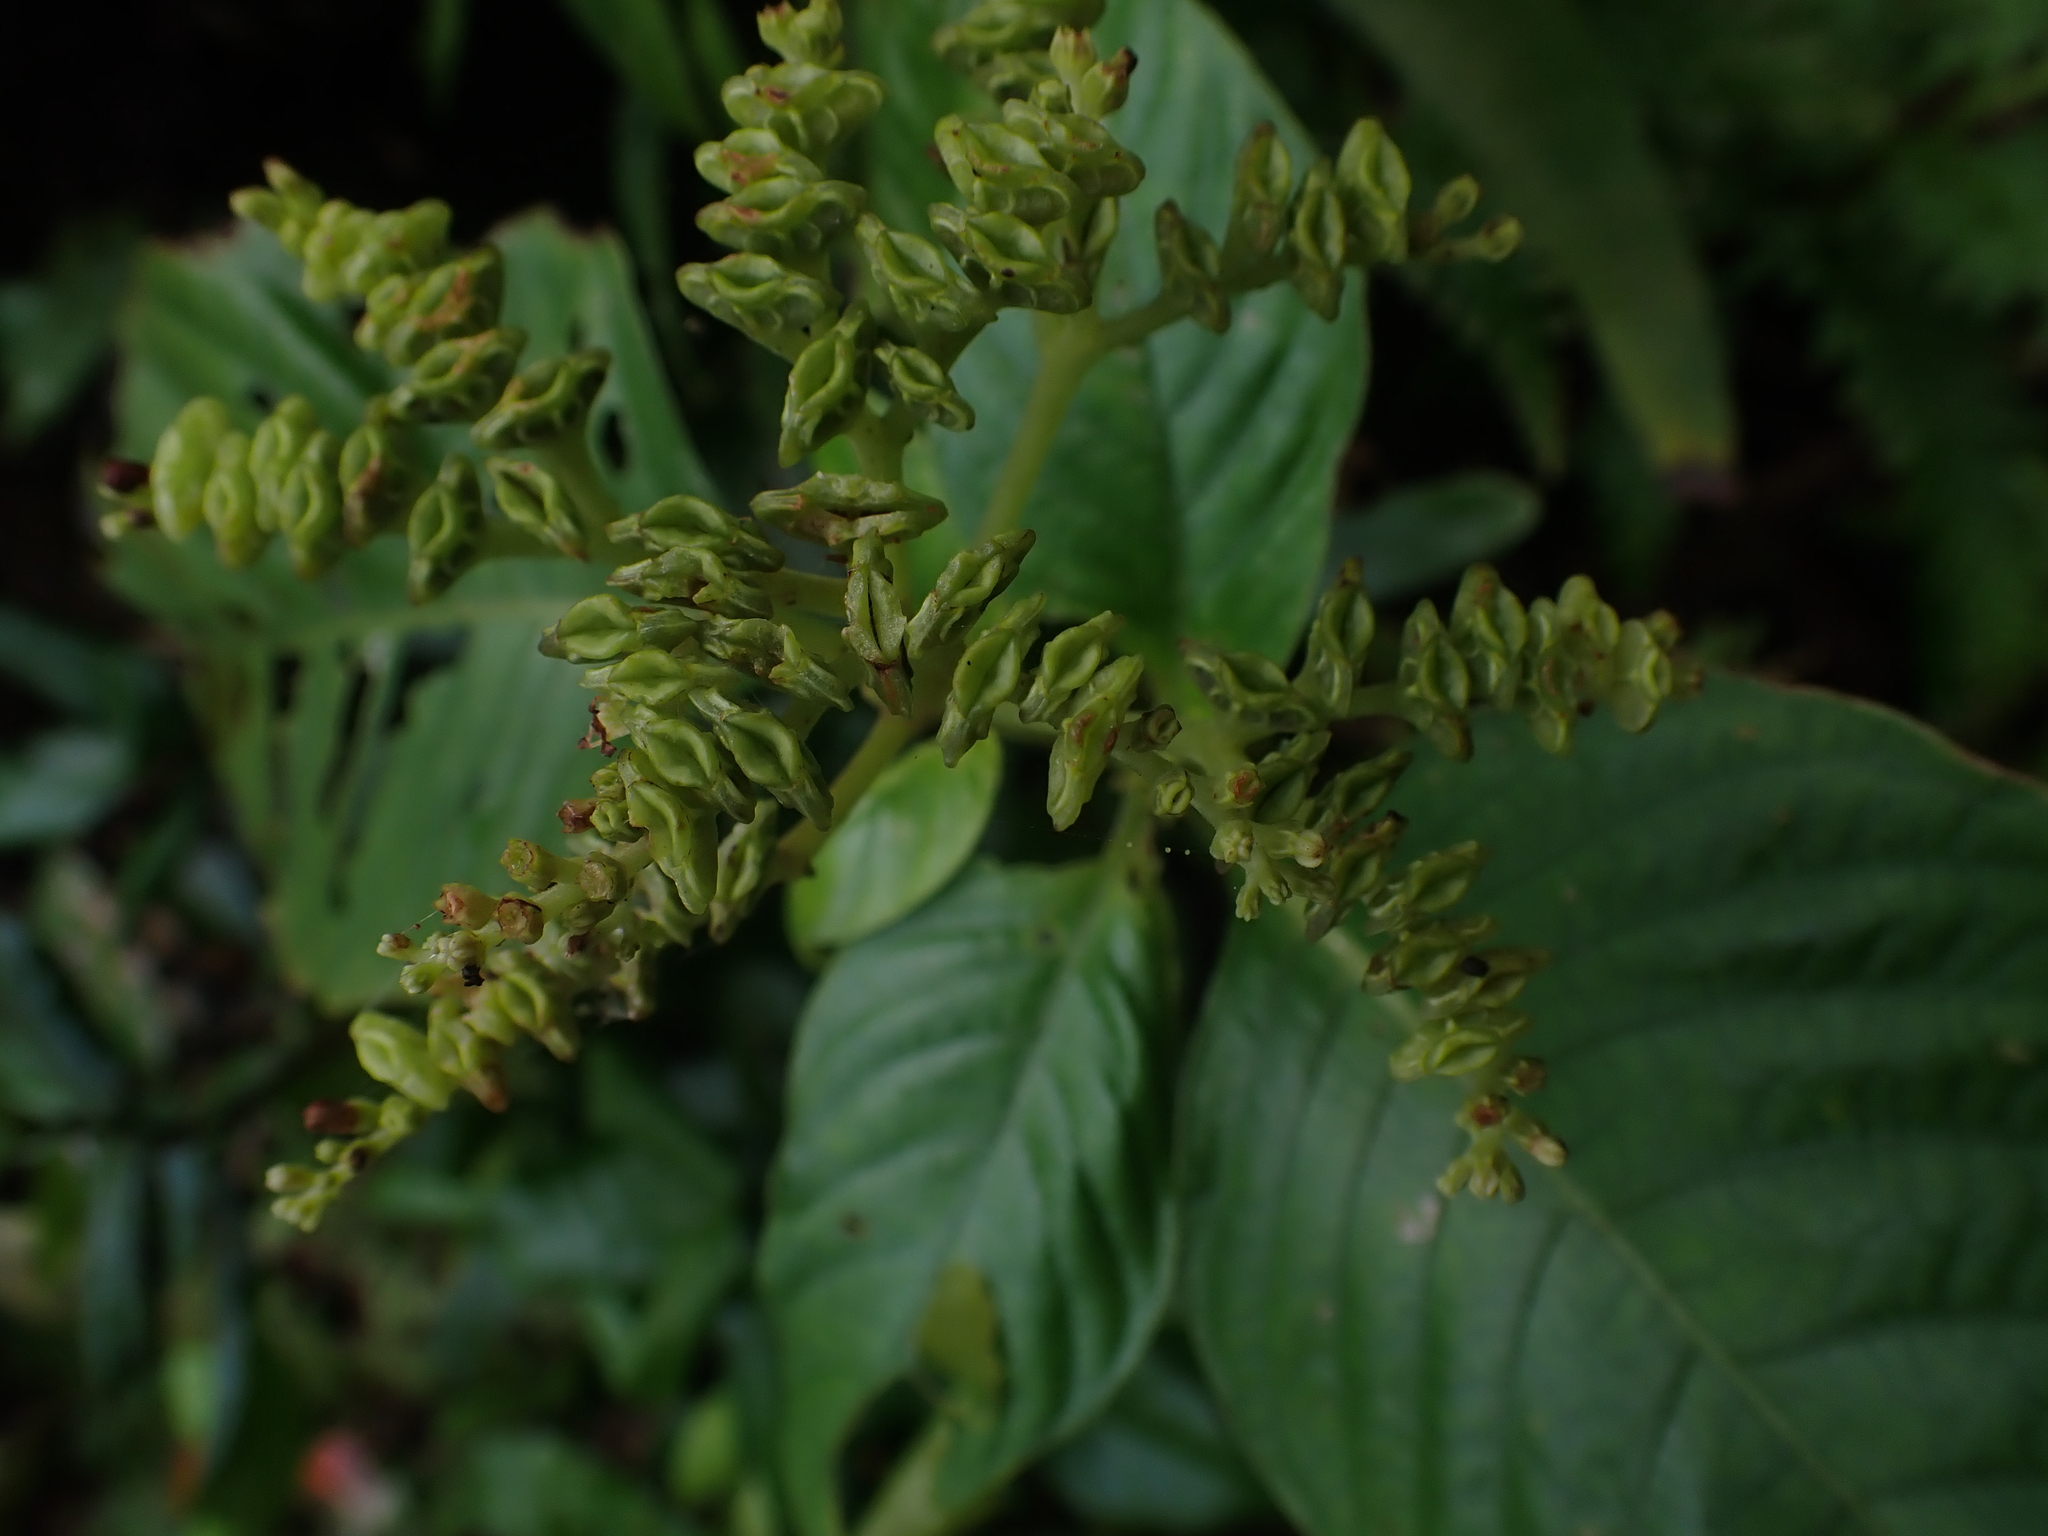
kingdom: Plantae
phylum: Tracheophyta
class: Magnoliopsida
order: Gentianales
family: Rubiaceae
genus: Ophiorrhiza
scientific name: Ophiorrhiza kuroiwae
